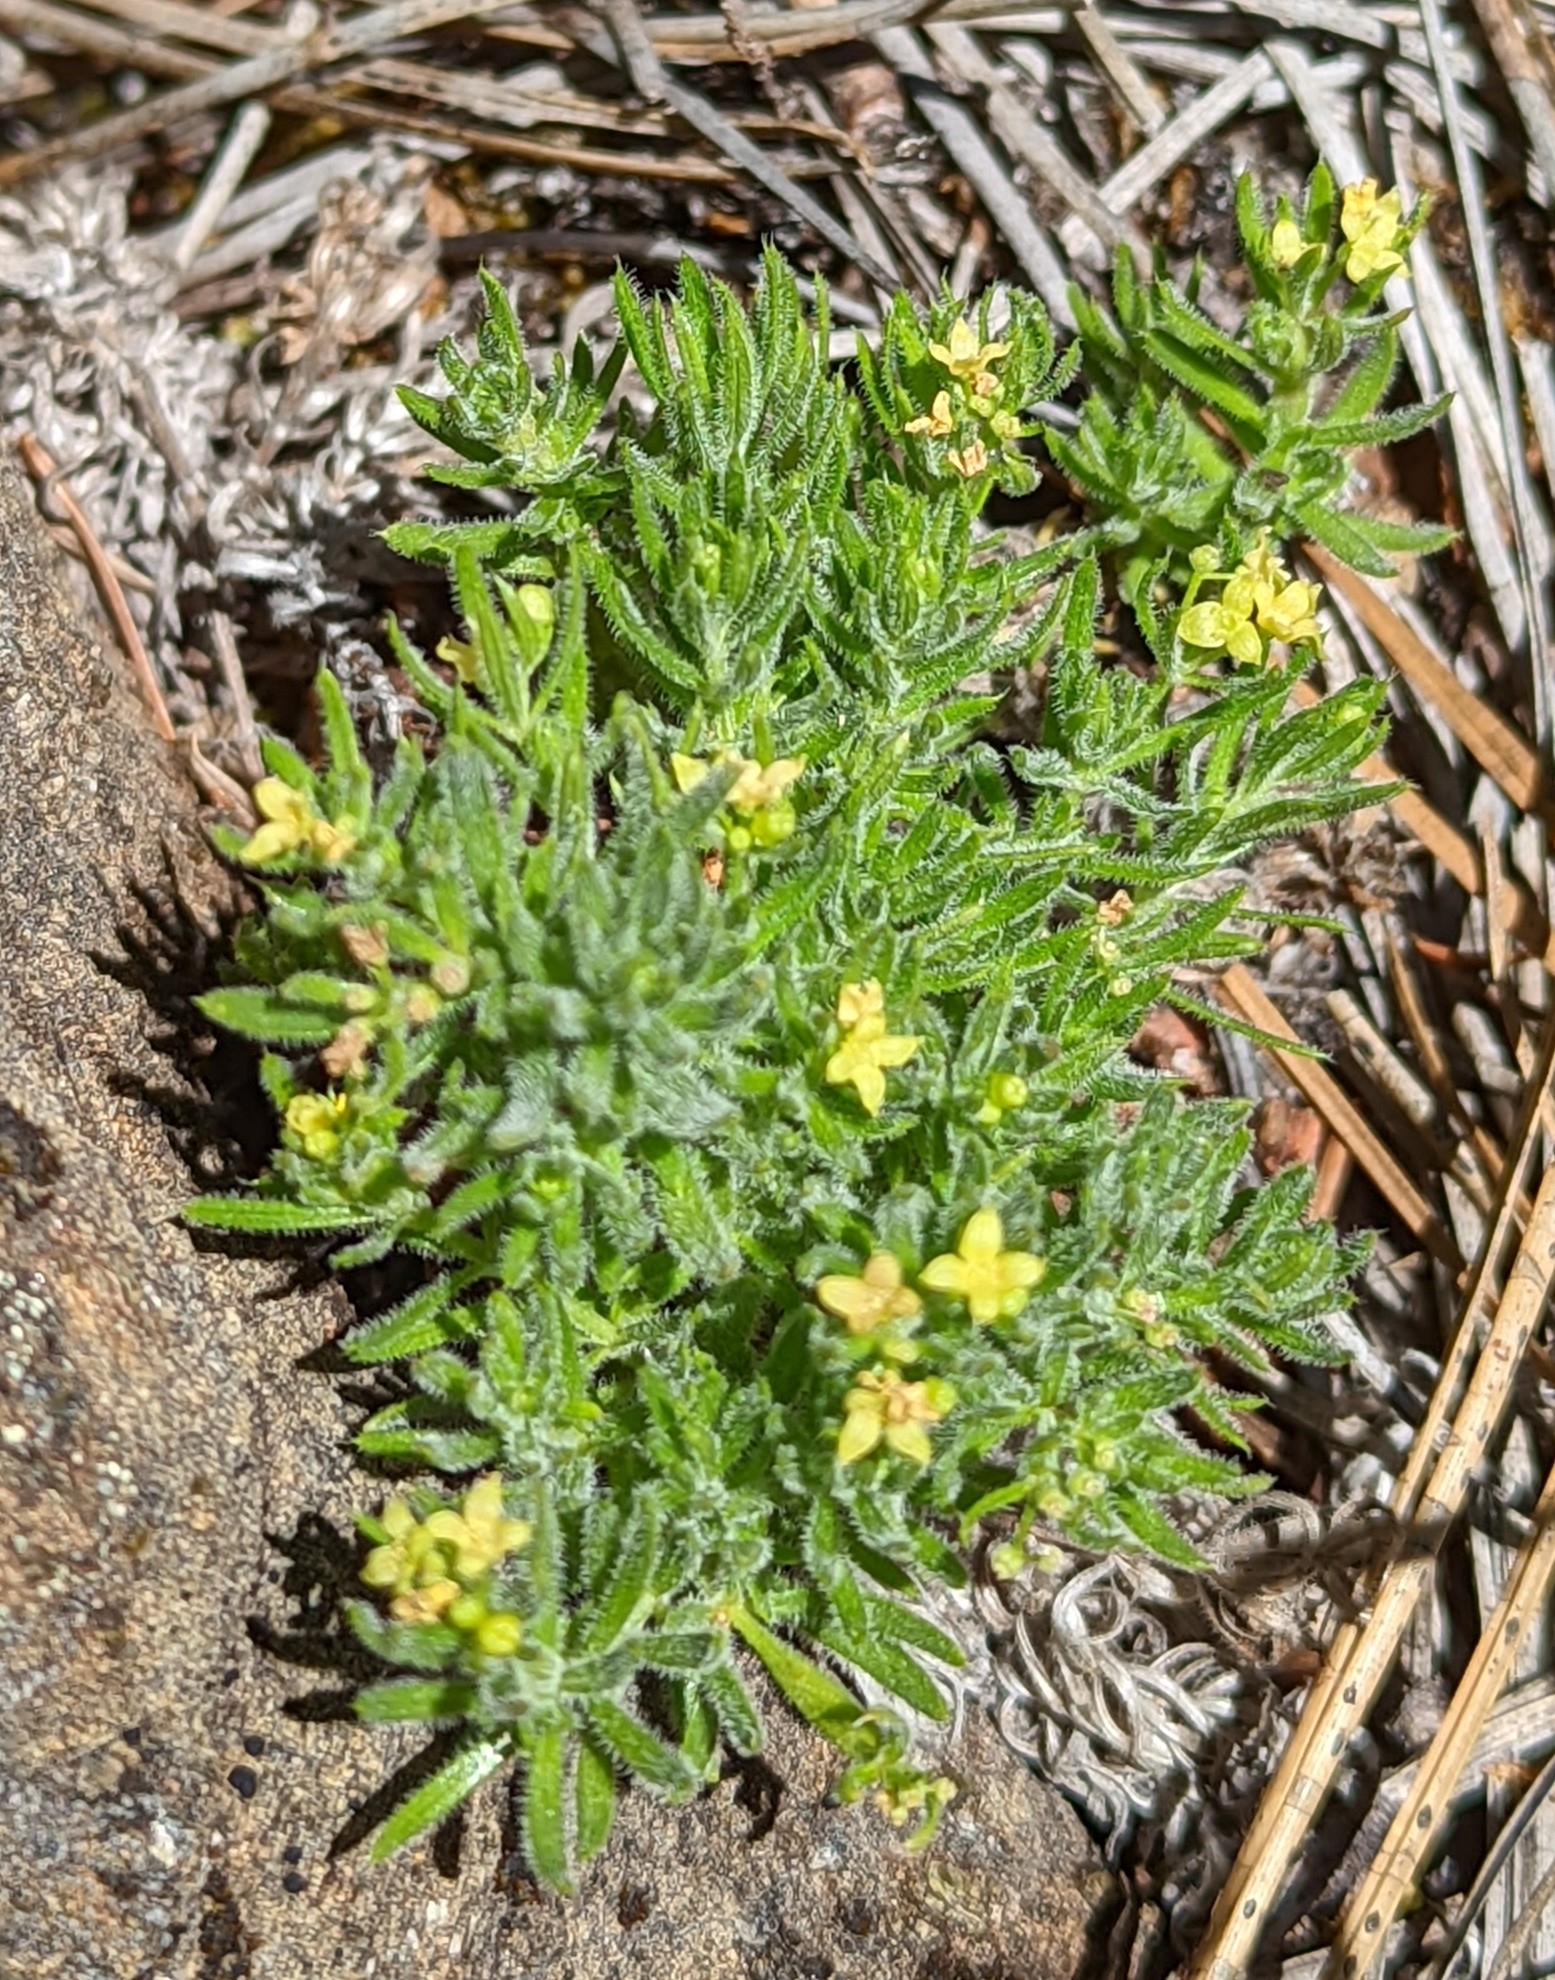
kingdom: Plantae
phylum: Tracheophyta
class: Magnoliopsida
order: Gentianales
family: Rubiaceae
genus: Galium
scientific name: Galium stebbinsii
